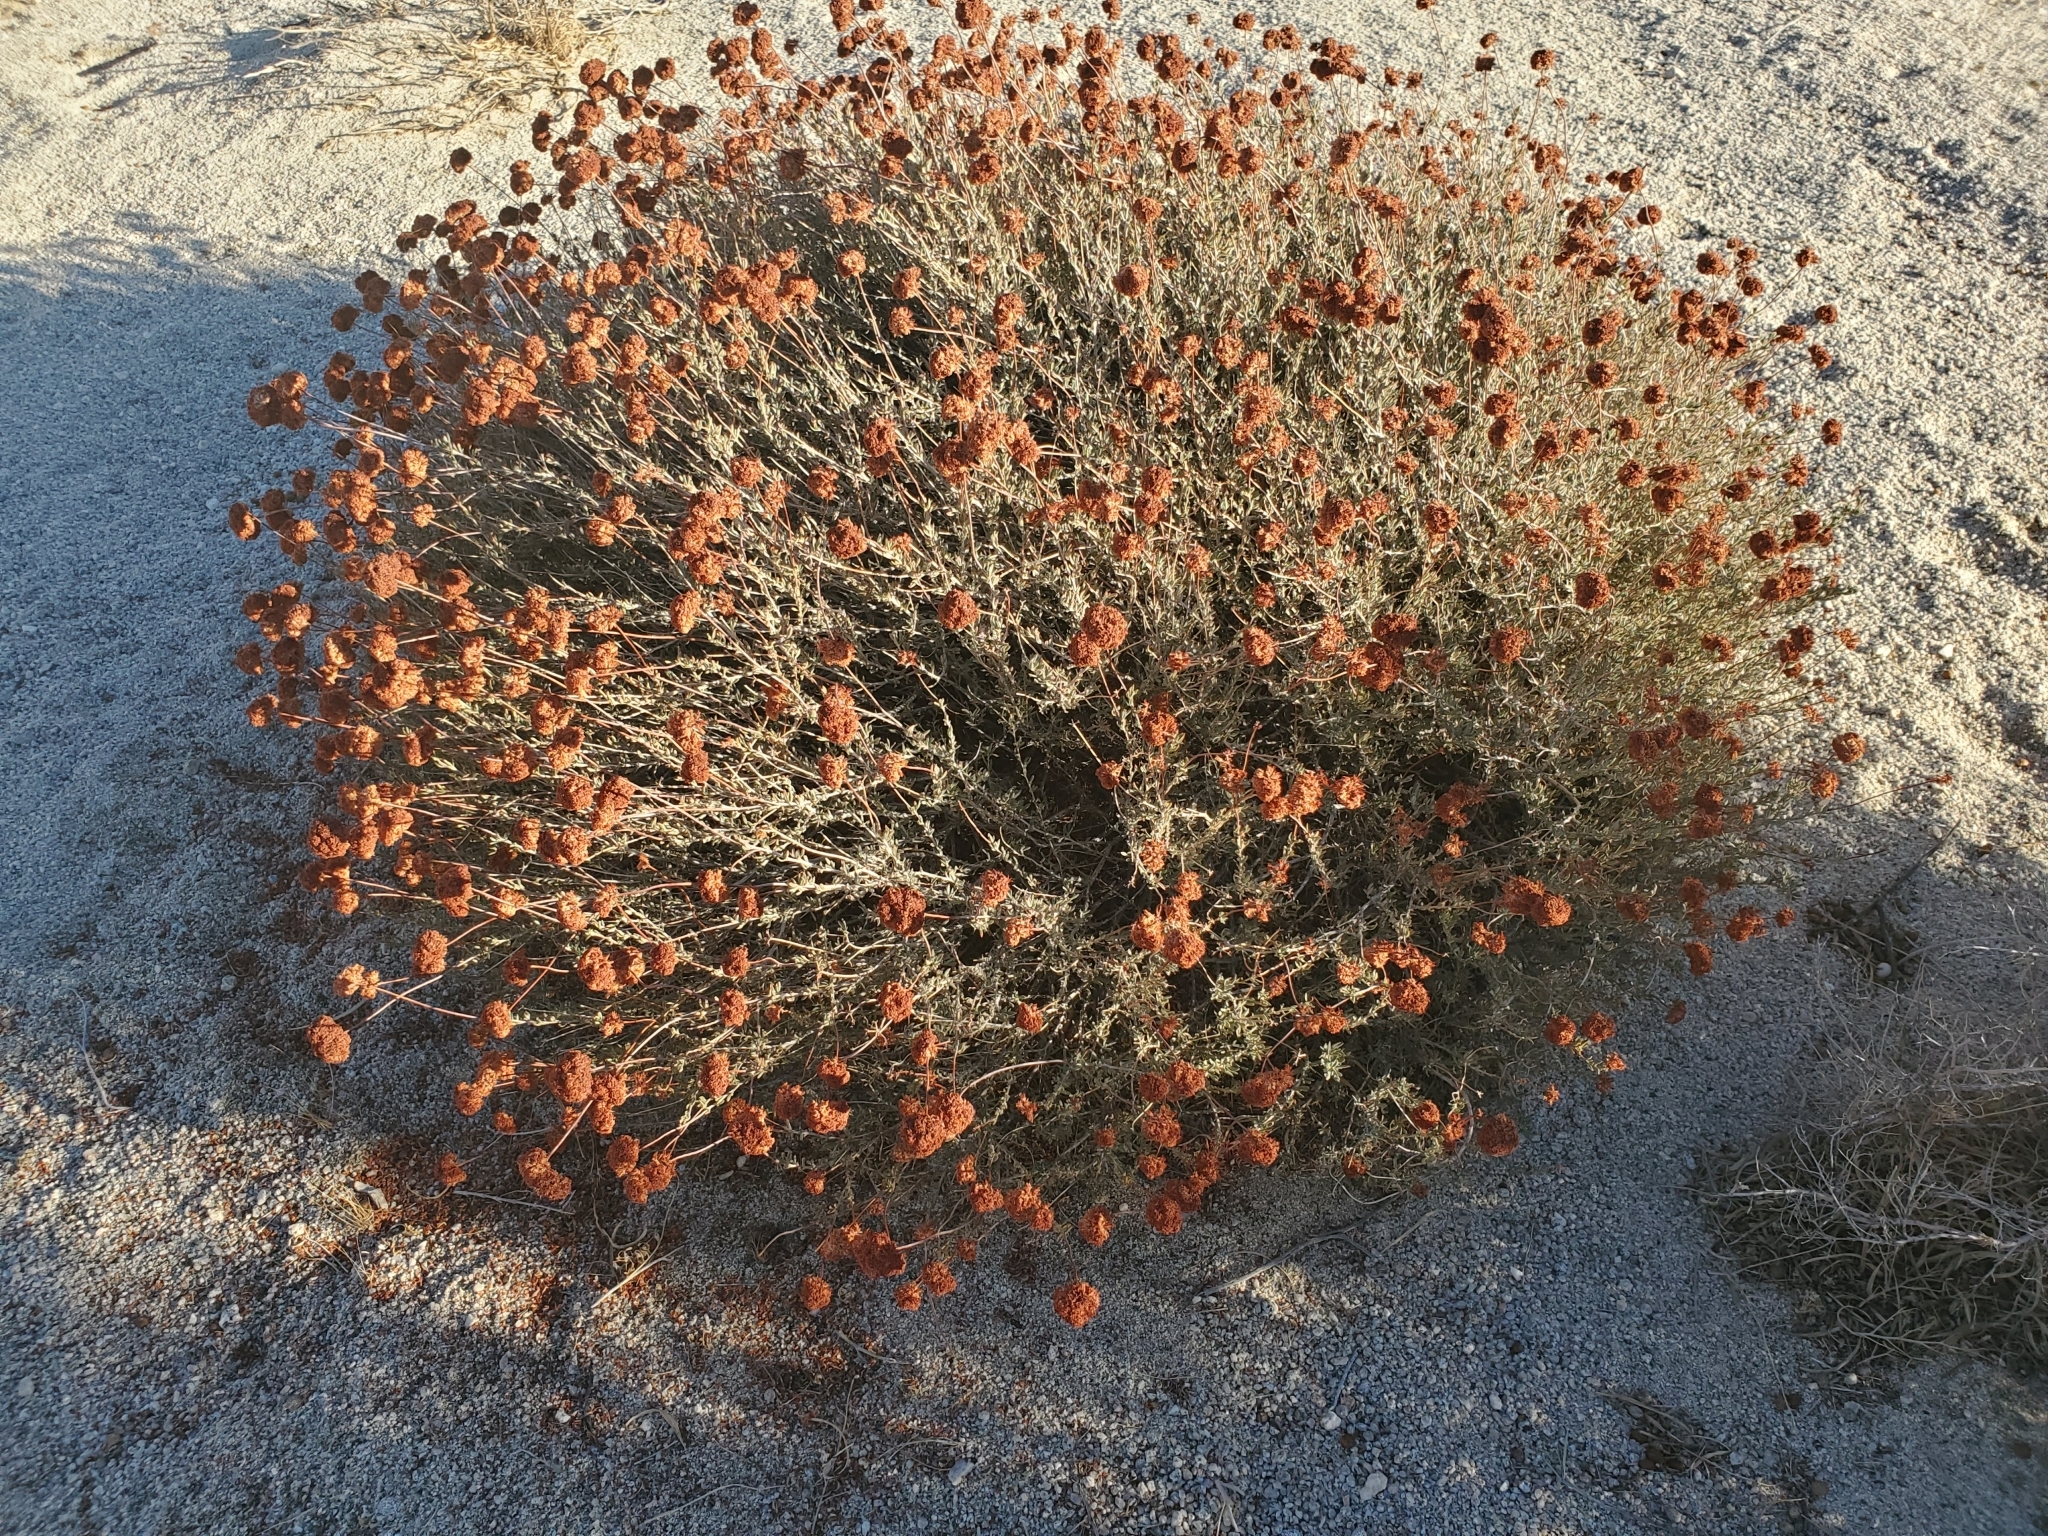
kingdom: Plantae
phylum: Tracheophyta
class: Magnoliopsida
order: Caryophyllales
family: Polygonaceae
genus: Eriogonum
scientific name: Eriogonum fasciculatum
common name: California wild buckwheat
